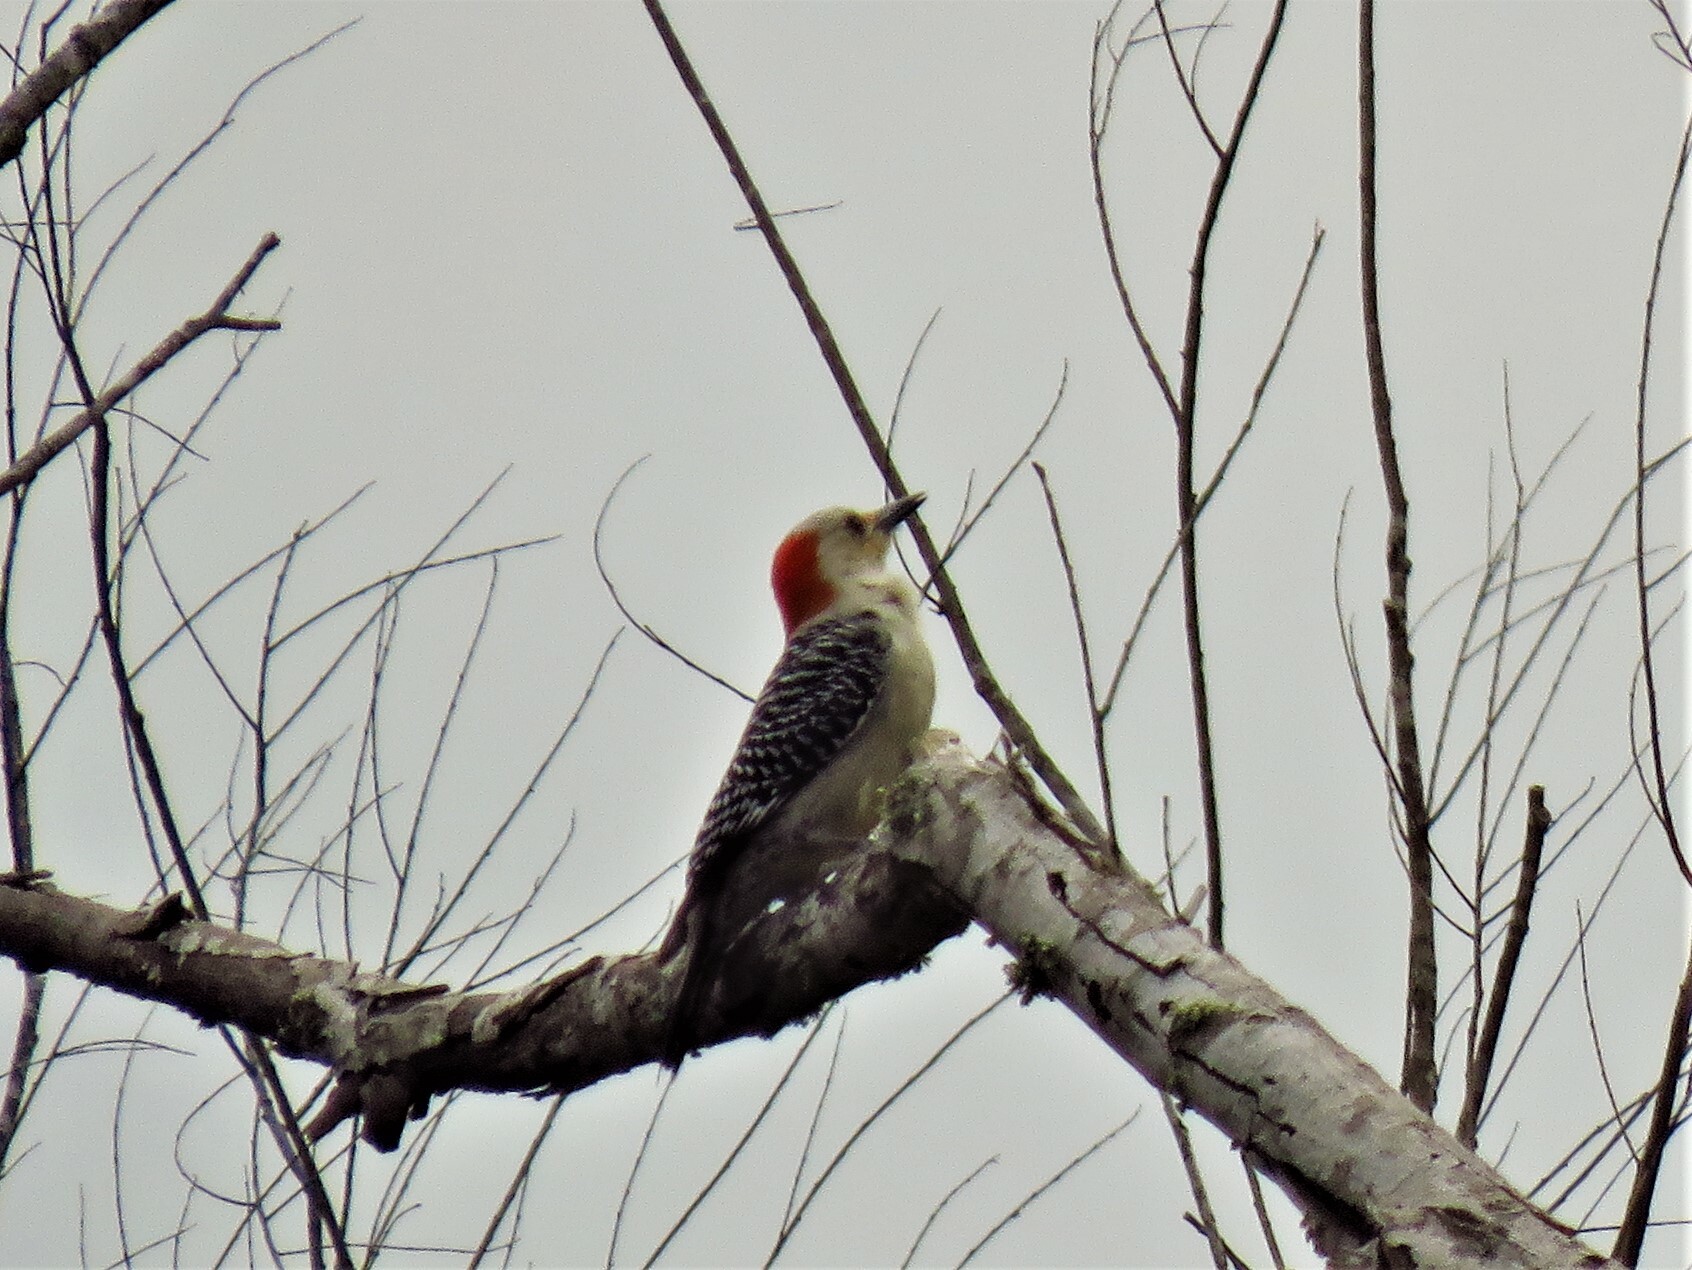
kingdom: Animalia
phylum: Chordata
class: Aves
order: Piciformes
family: Picidae
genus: Melanerpes
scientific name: Melanerpes carolinus
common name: Red-bellied woodpecker
